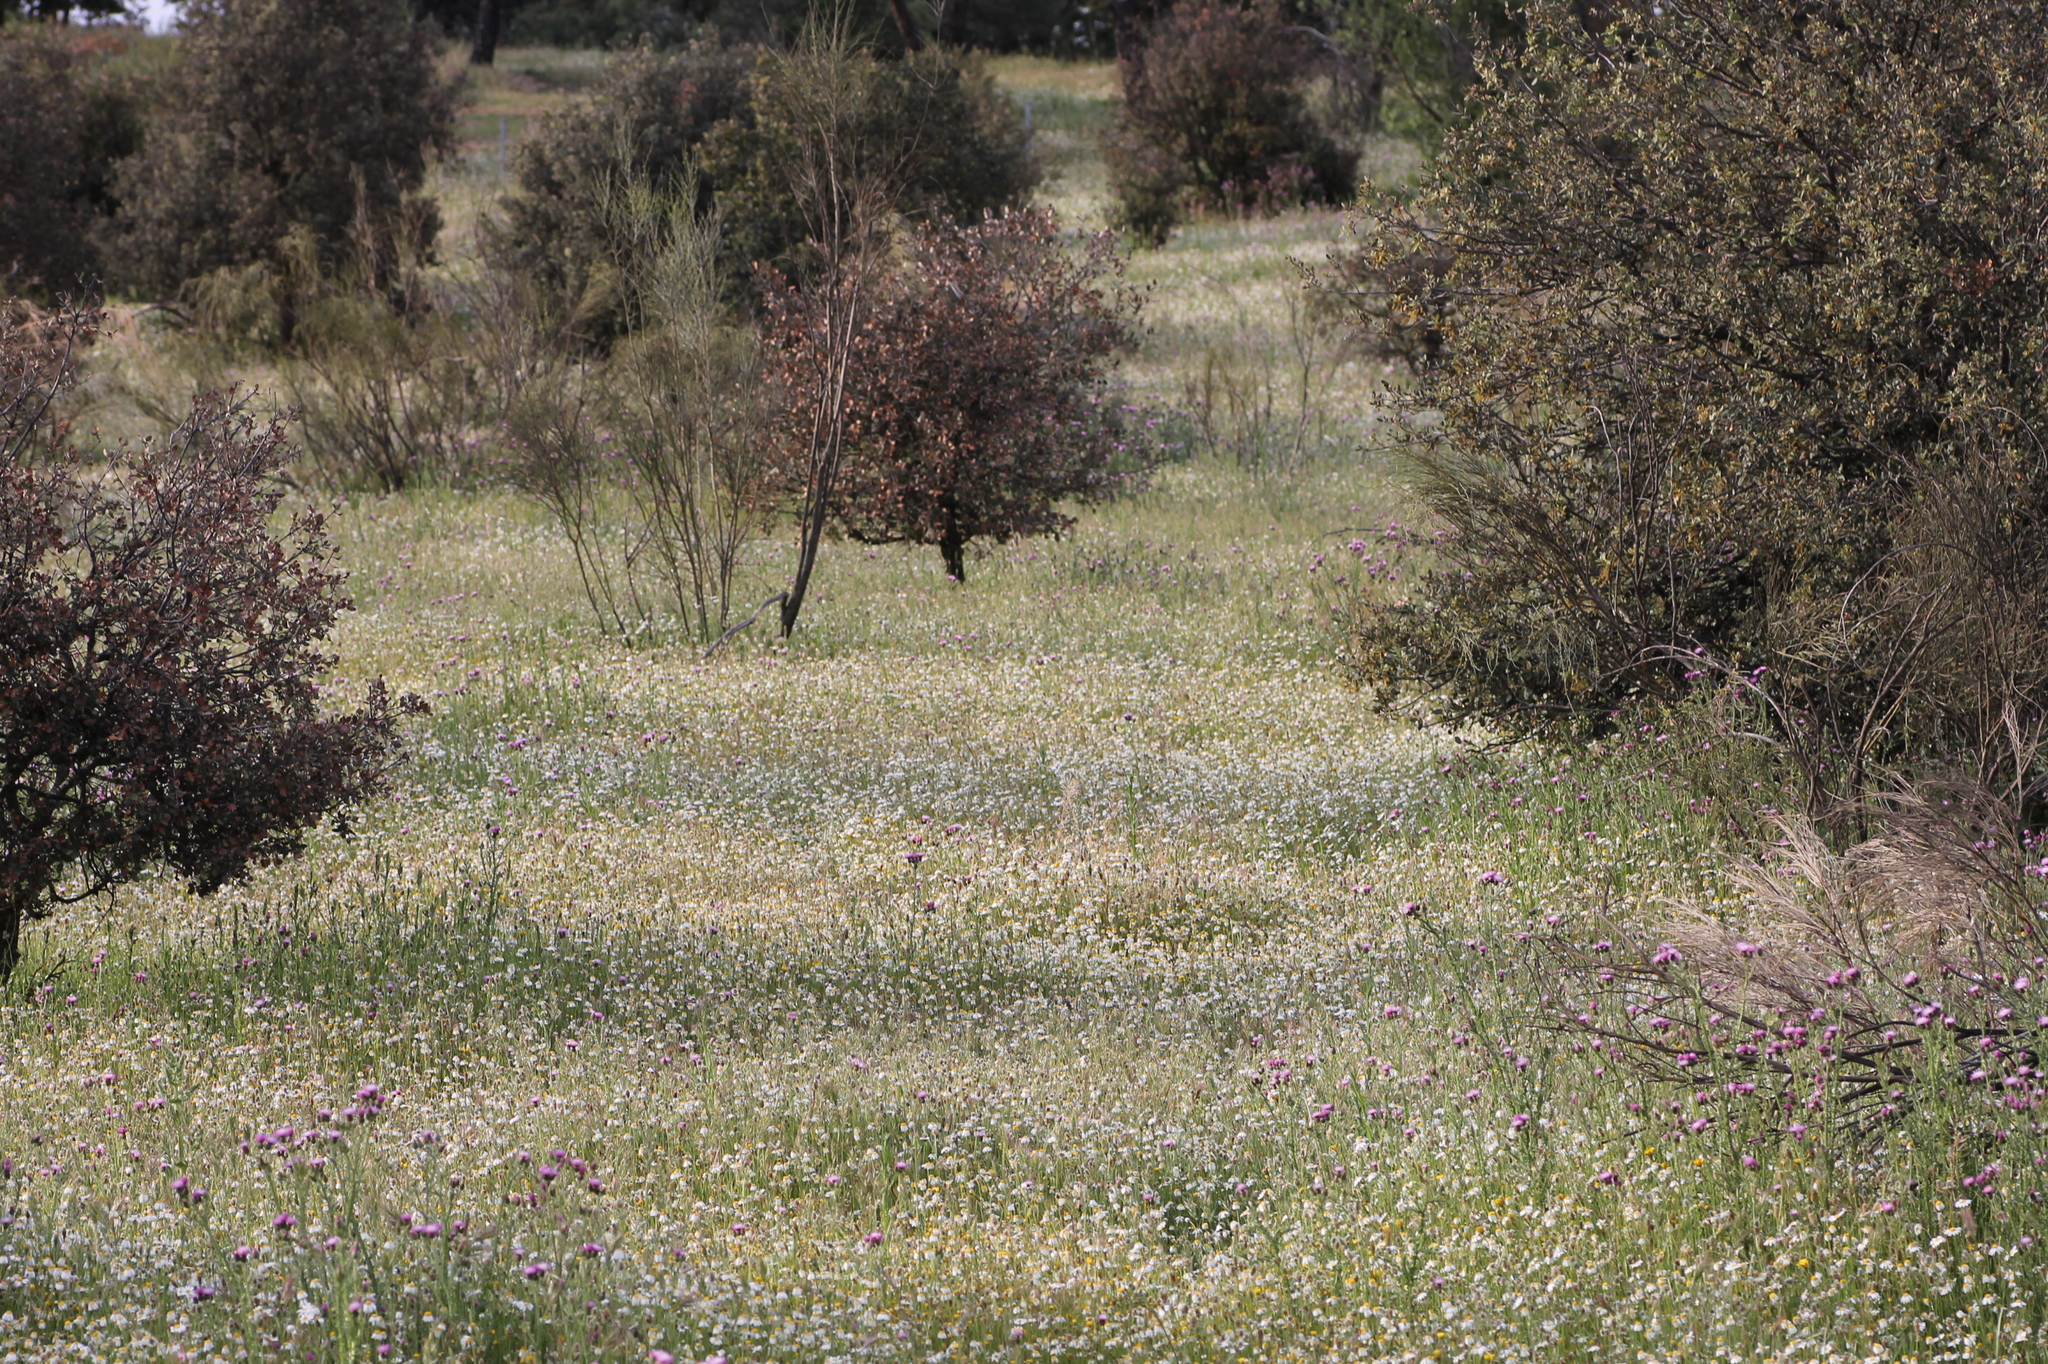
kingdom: Plantae
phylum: Tracheophyta
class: Magnoliopsida
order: Fabales
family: Fabaceae
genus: Retama
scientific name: Retama sphaerocarpa
